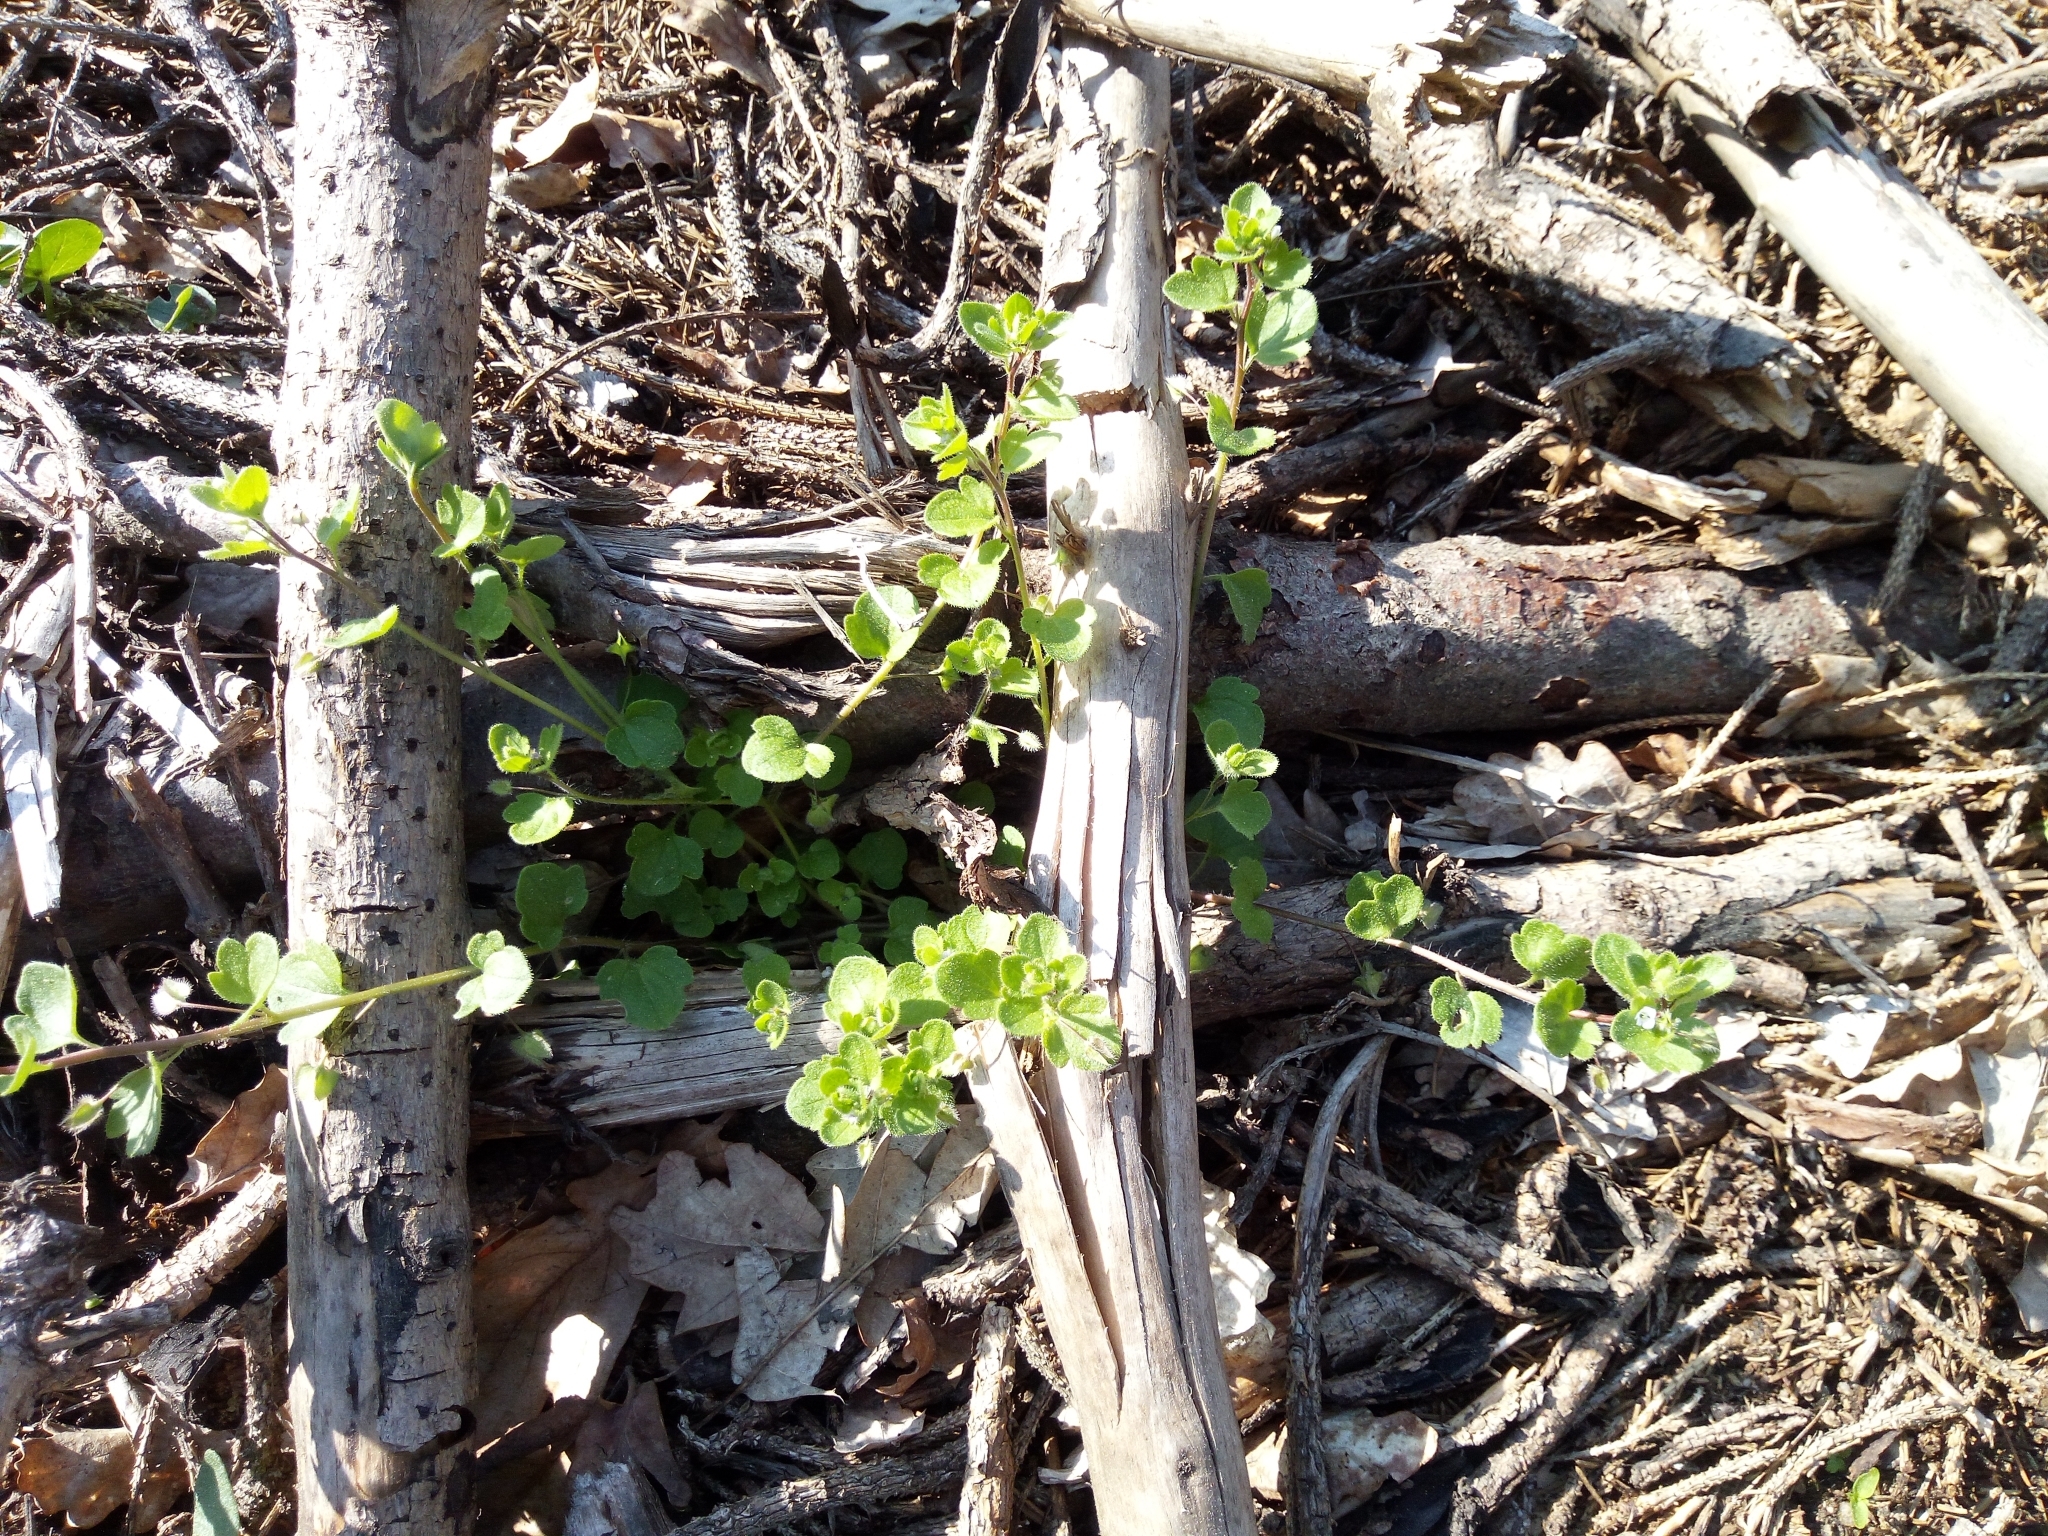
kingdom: Plantae
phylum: Tracheophyta
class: Magnoliopsida
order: Lamiales
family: Plantaginaceae
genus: Veronica
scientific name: Veronica sublobata
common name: False ivy-leaved speedwell
